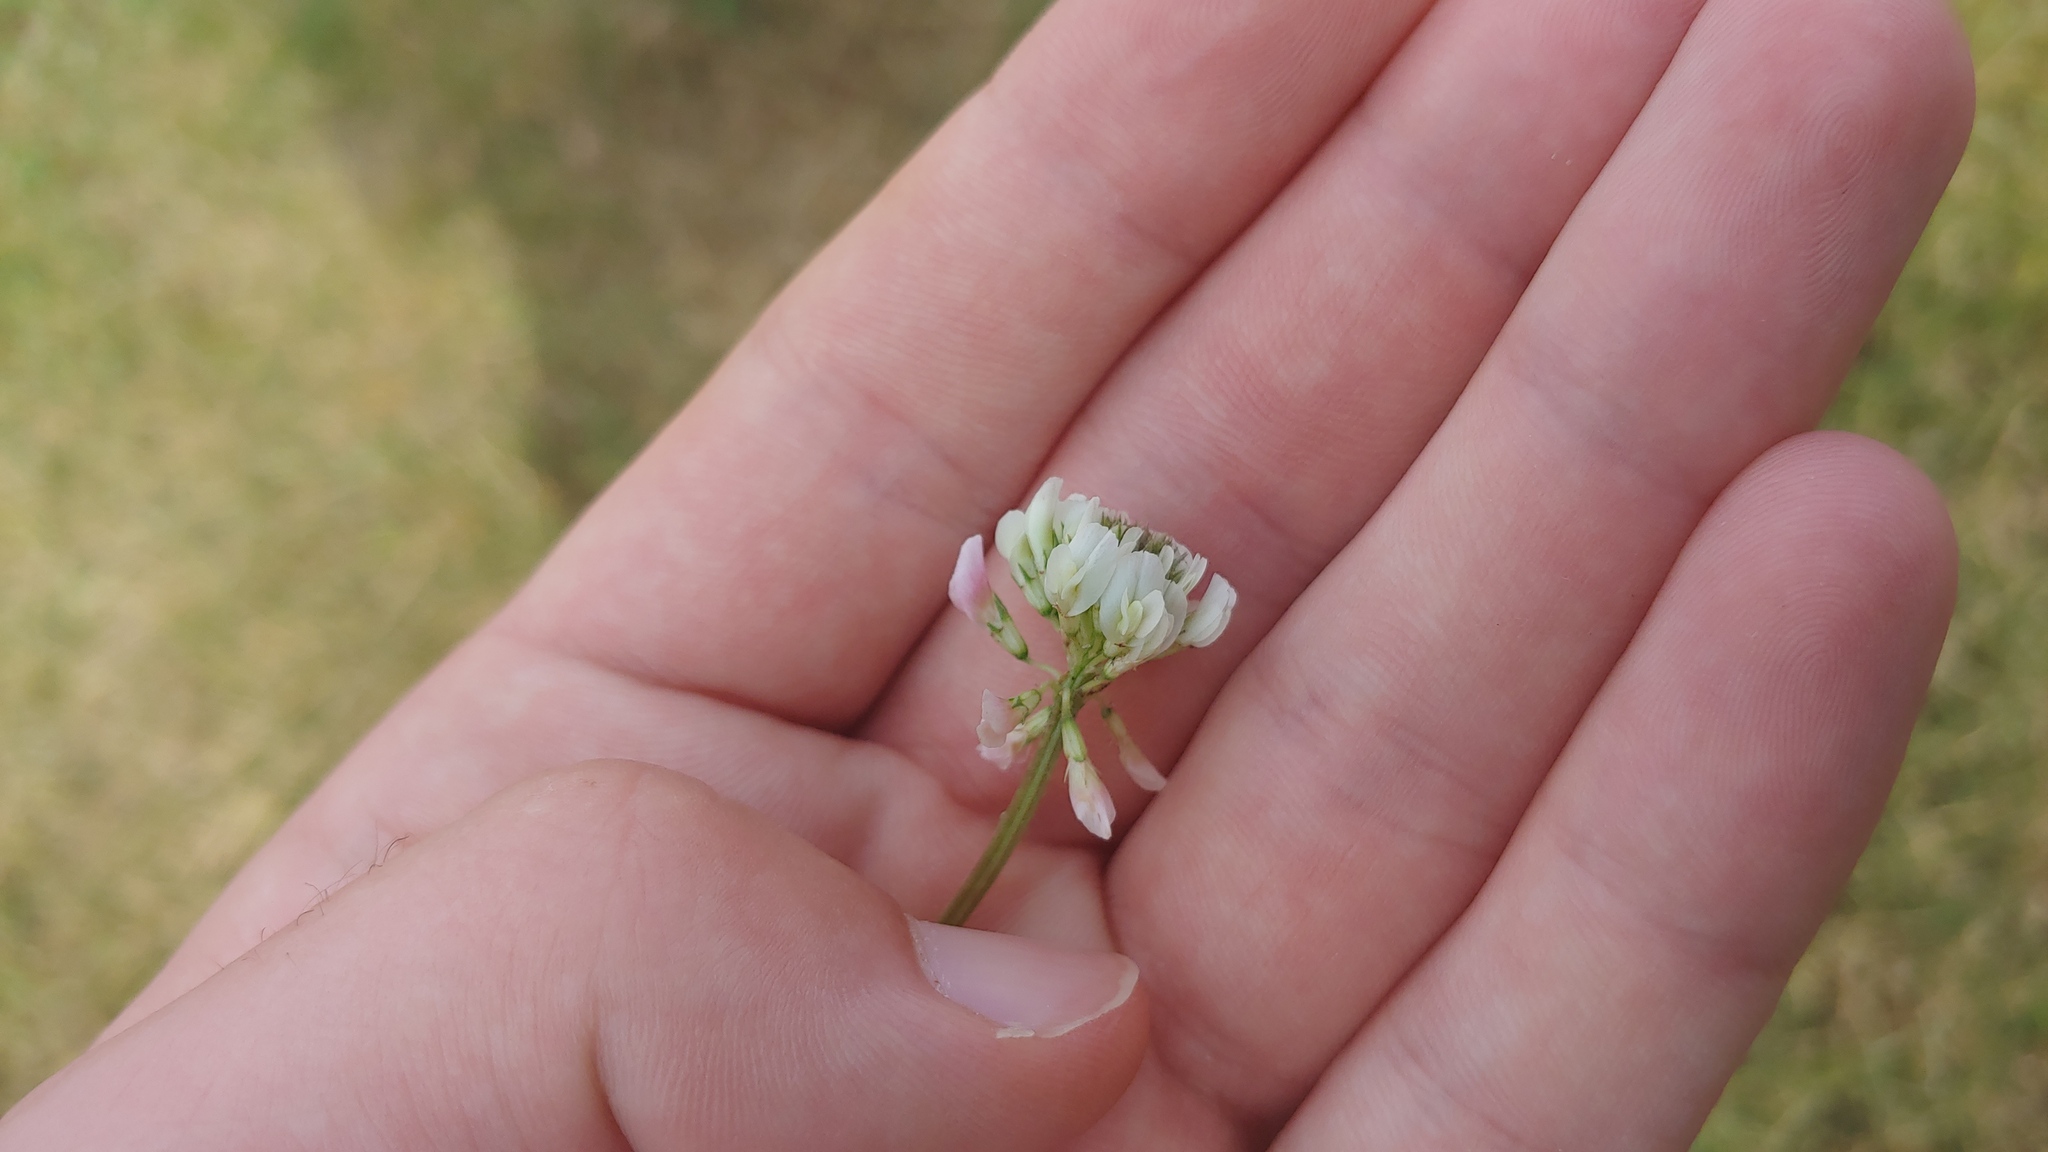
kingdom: Plantae
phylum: Tracheophyta
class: Magnoliopsida
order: Fabales
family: Fabaceae
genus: Trifolium
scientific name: Trifolium repens
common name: White clover
